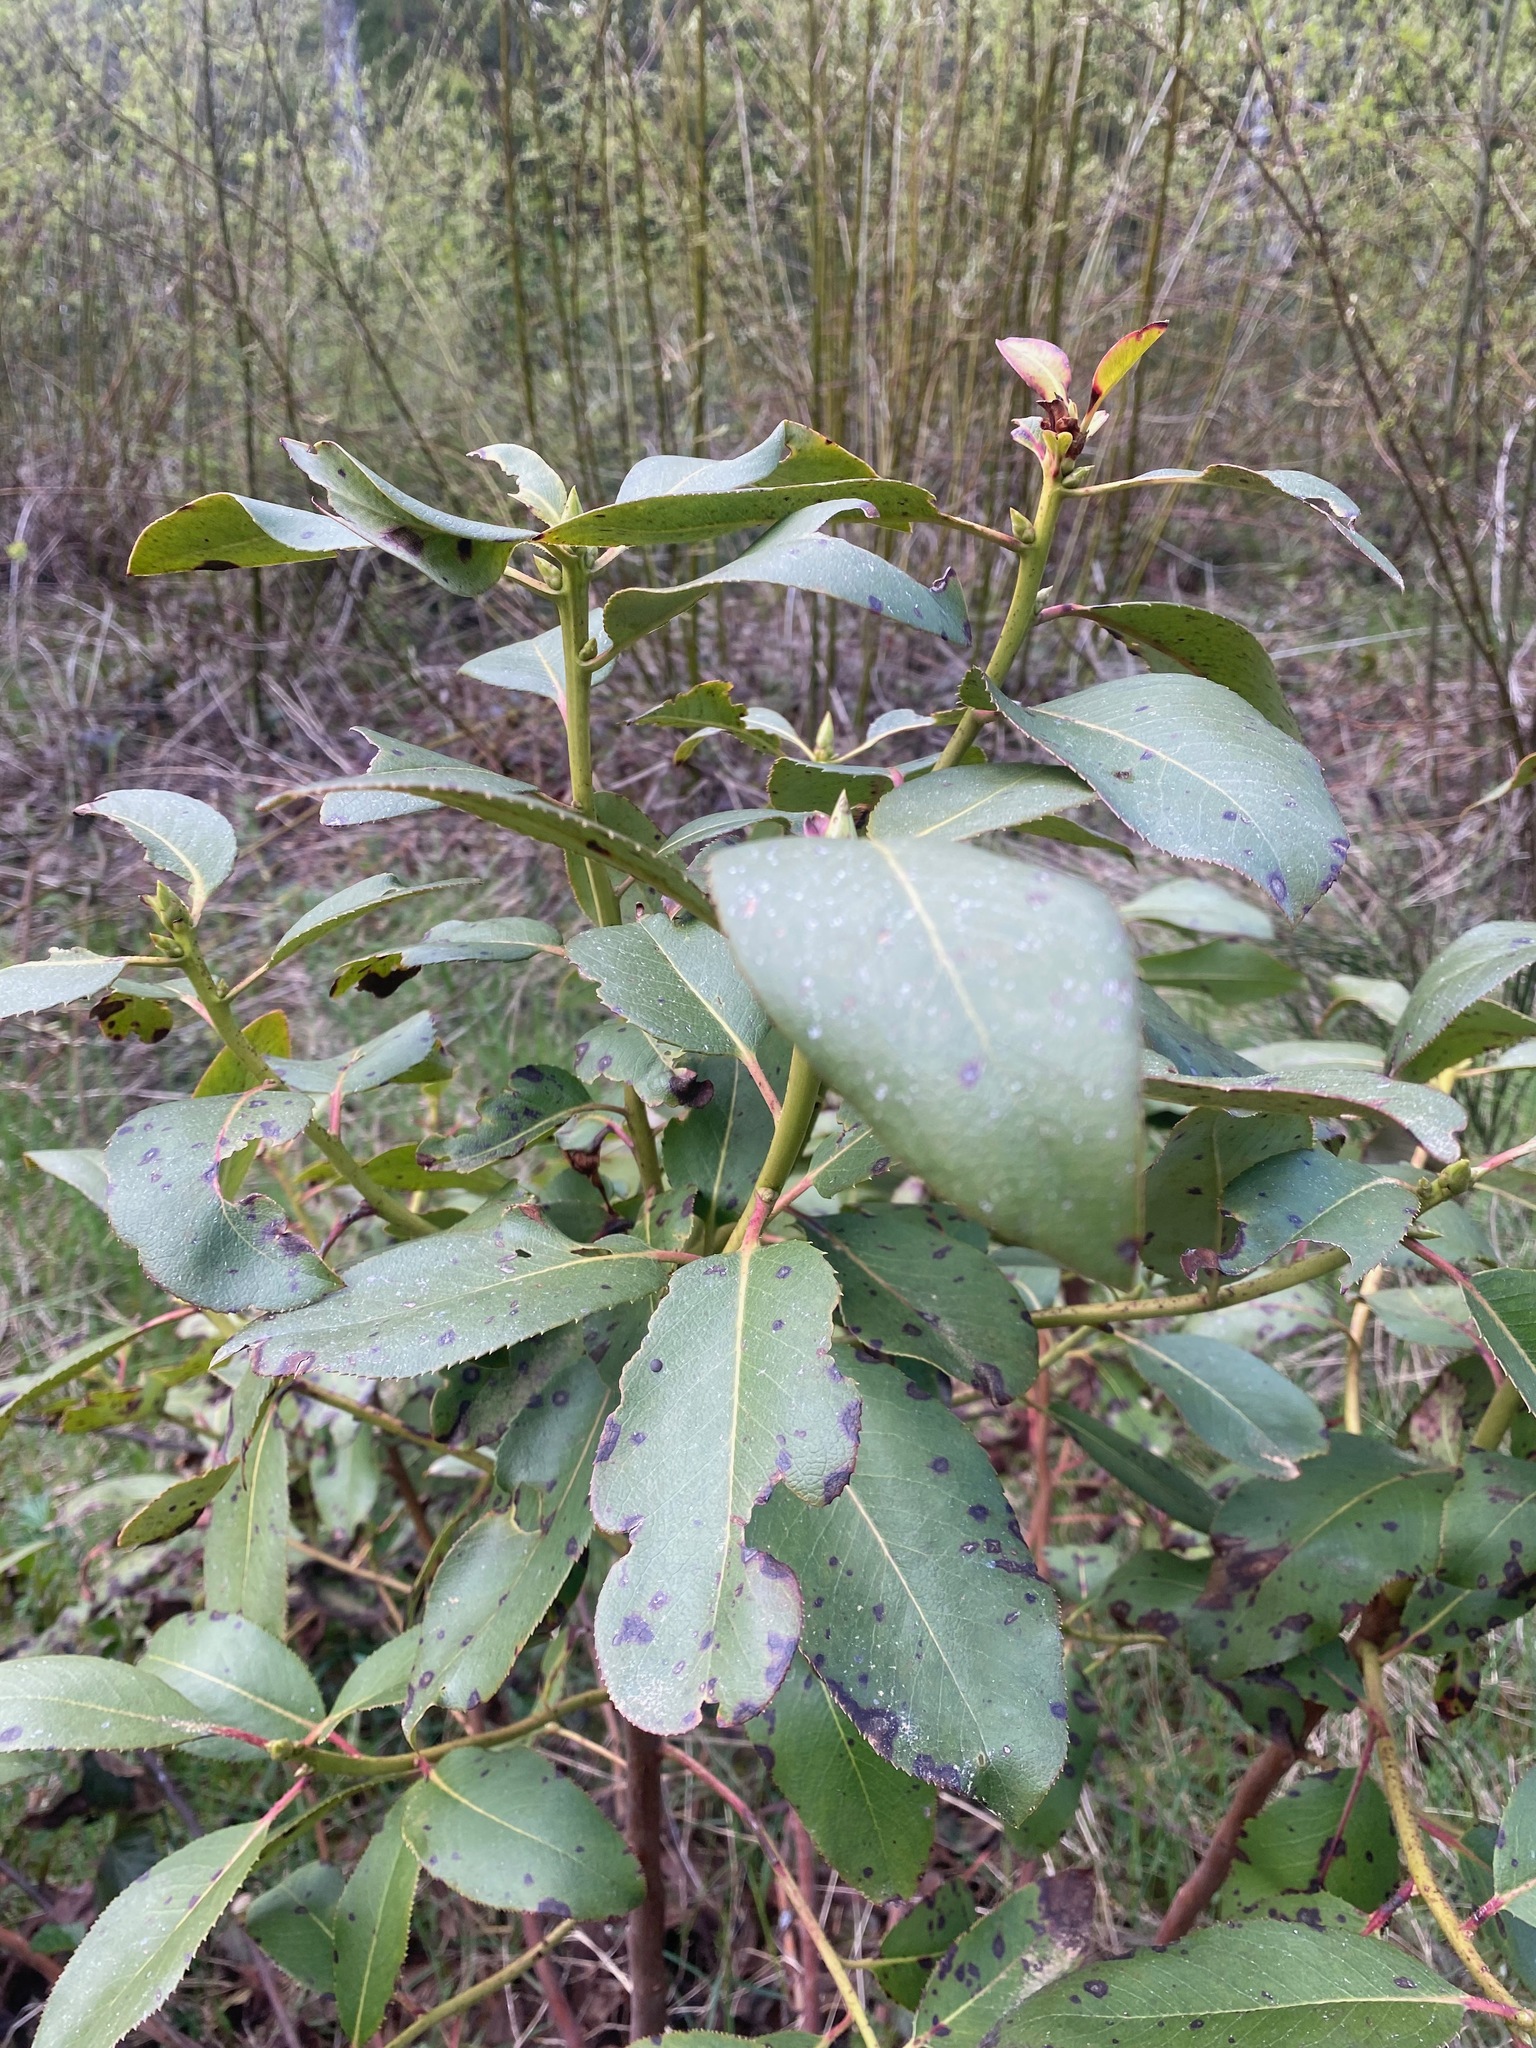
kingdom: Plantae
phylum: Tracheophyta
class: Magnoliopsida
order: Ericales
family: Ericaceae
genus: Arbutus
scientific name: Arbutus menziesii
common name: Pacific madrone
